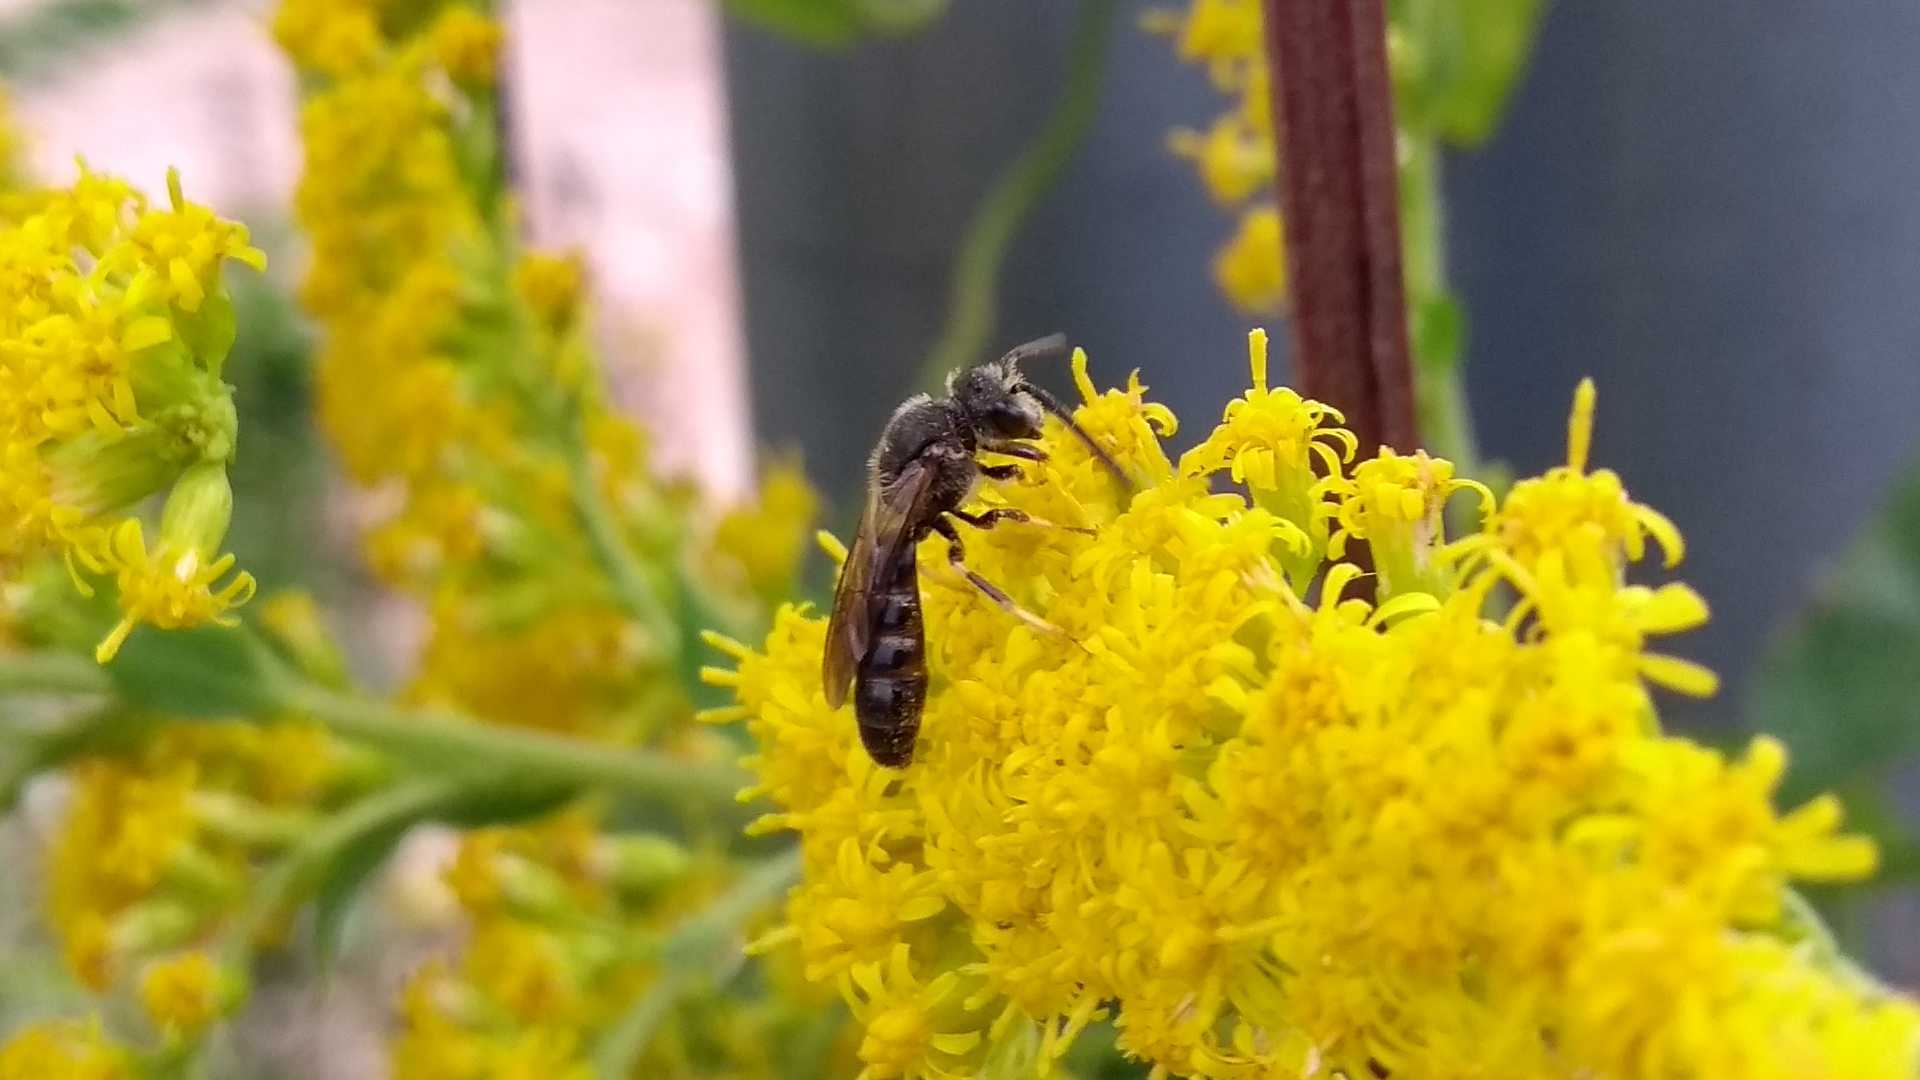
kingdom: Animalia
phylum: Arthropoda
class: Insecta
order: Hymenoptera
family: Halictidae
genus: Lasioglossum
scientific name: Lasioglossum
